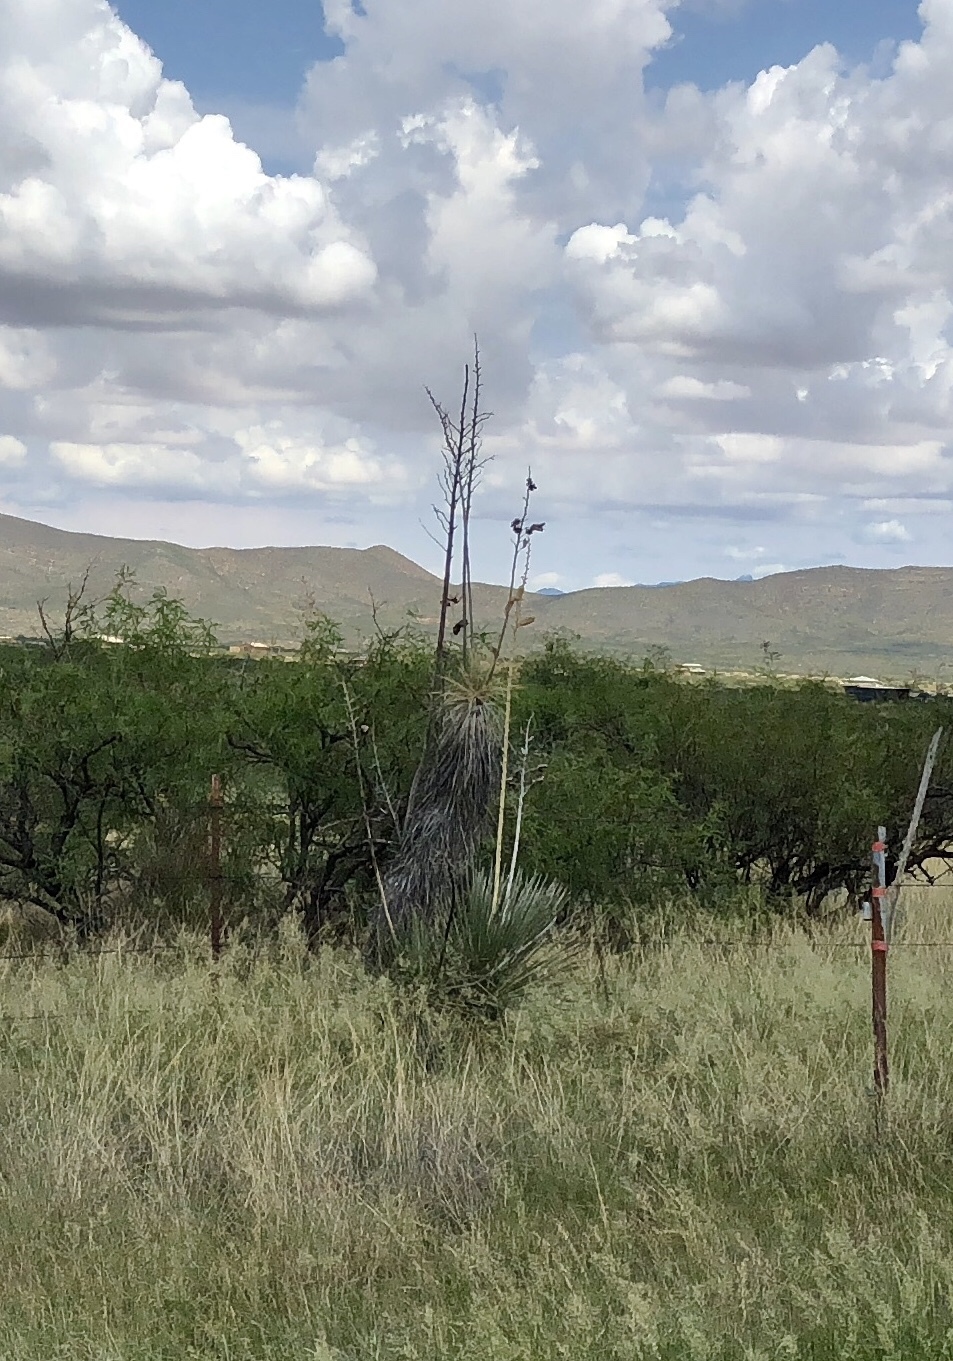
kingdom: Plantae
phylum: Tracheophyta
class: Liliopsida
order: Asparagales
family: Asparagaceae
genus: Yucca
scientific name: Yucca elata
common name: Palmella
